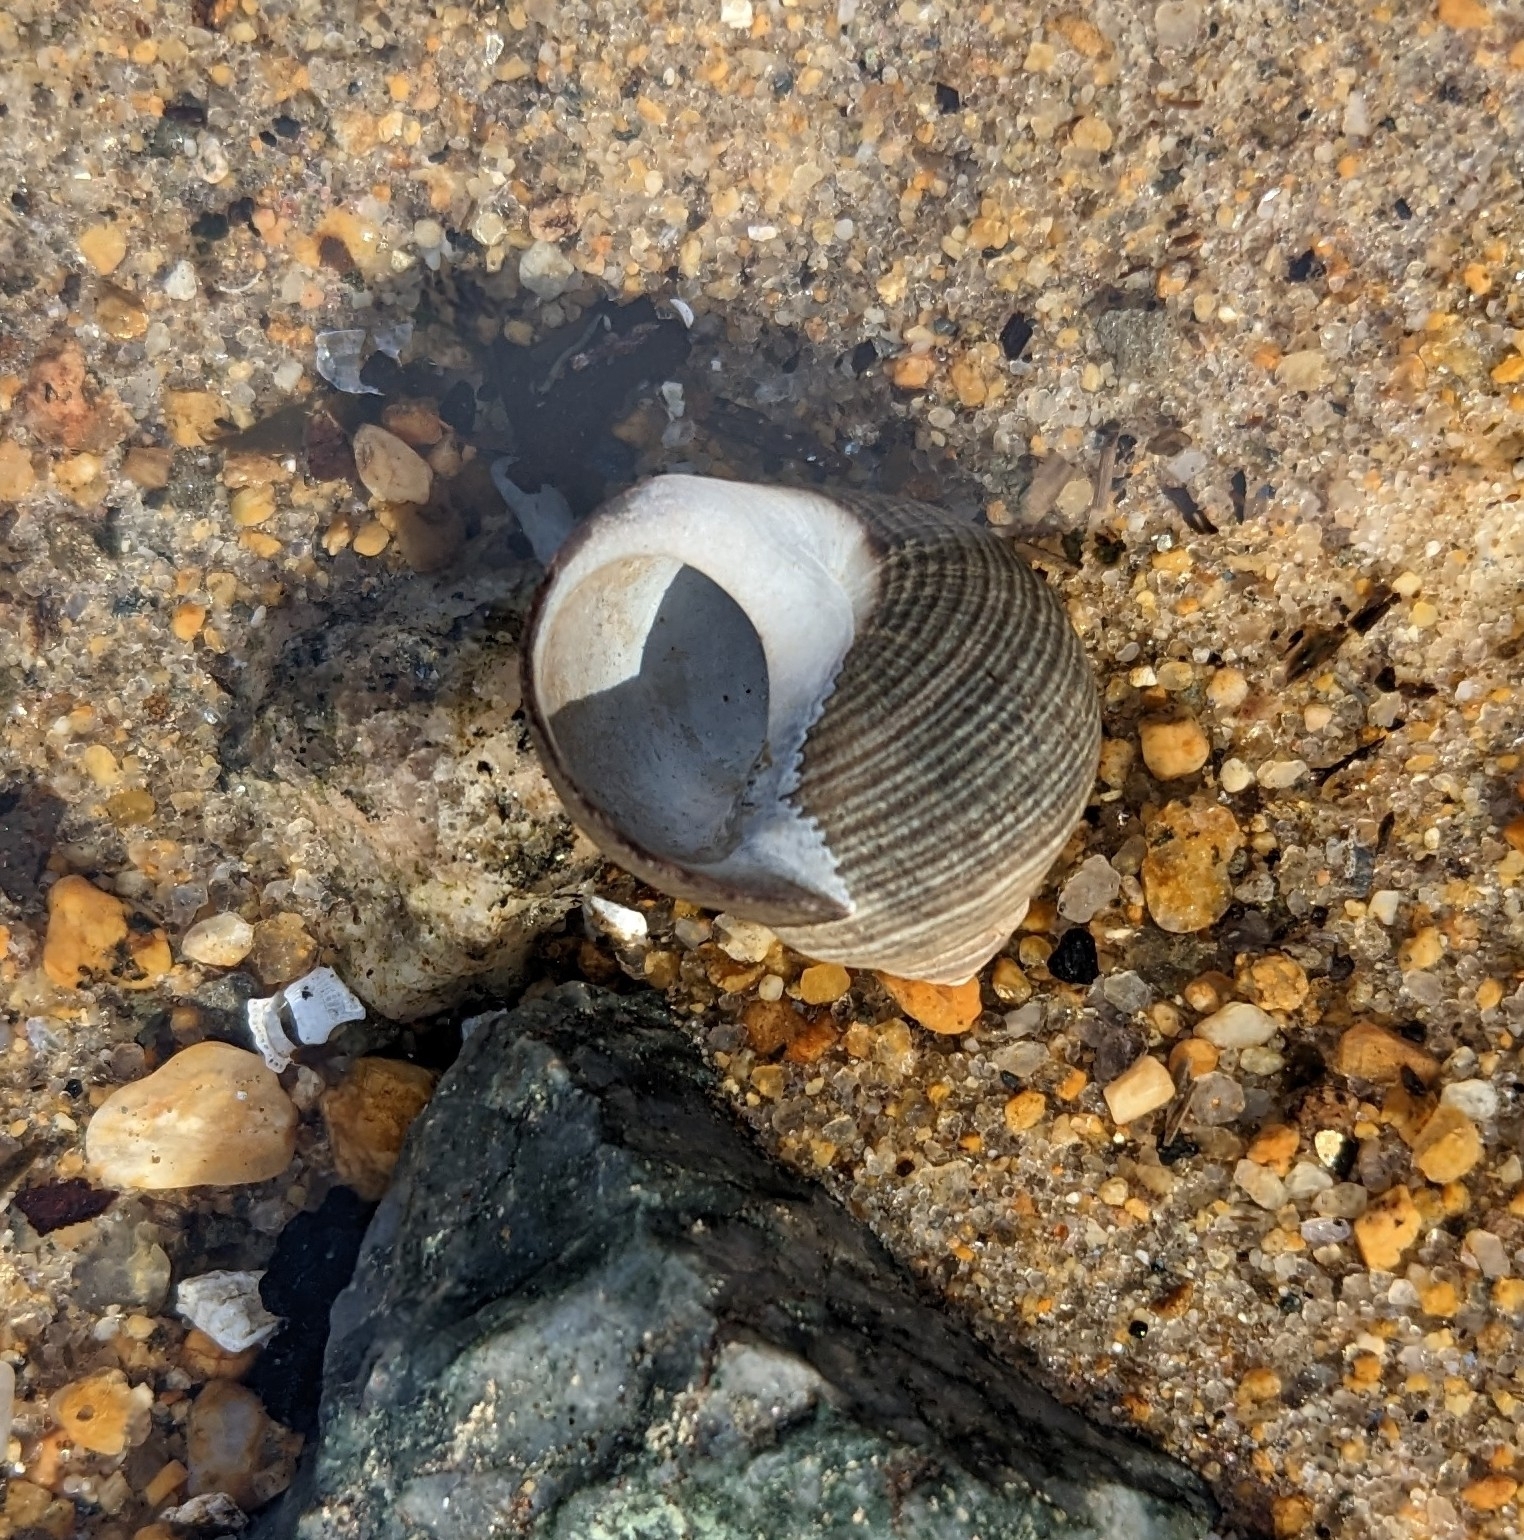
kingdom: Animalia
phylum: Mollusca
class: Gastropoda
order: Littorinimorpha
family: Littorinidae
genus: Littorina
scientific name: Littorina littorea
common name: Common periwinkle
